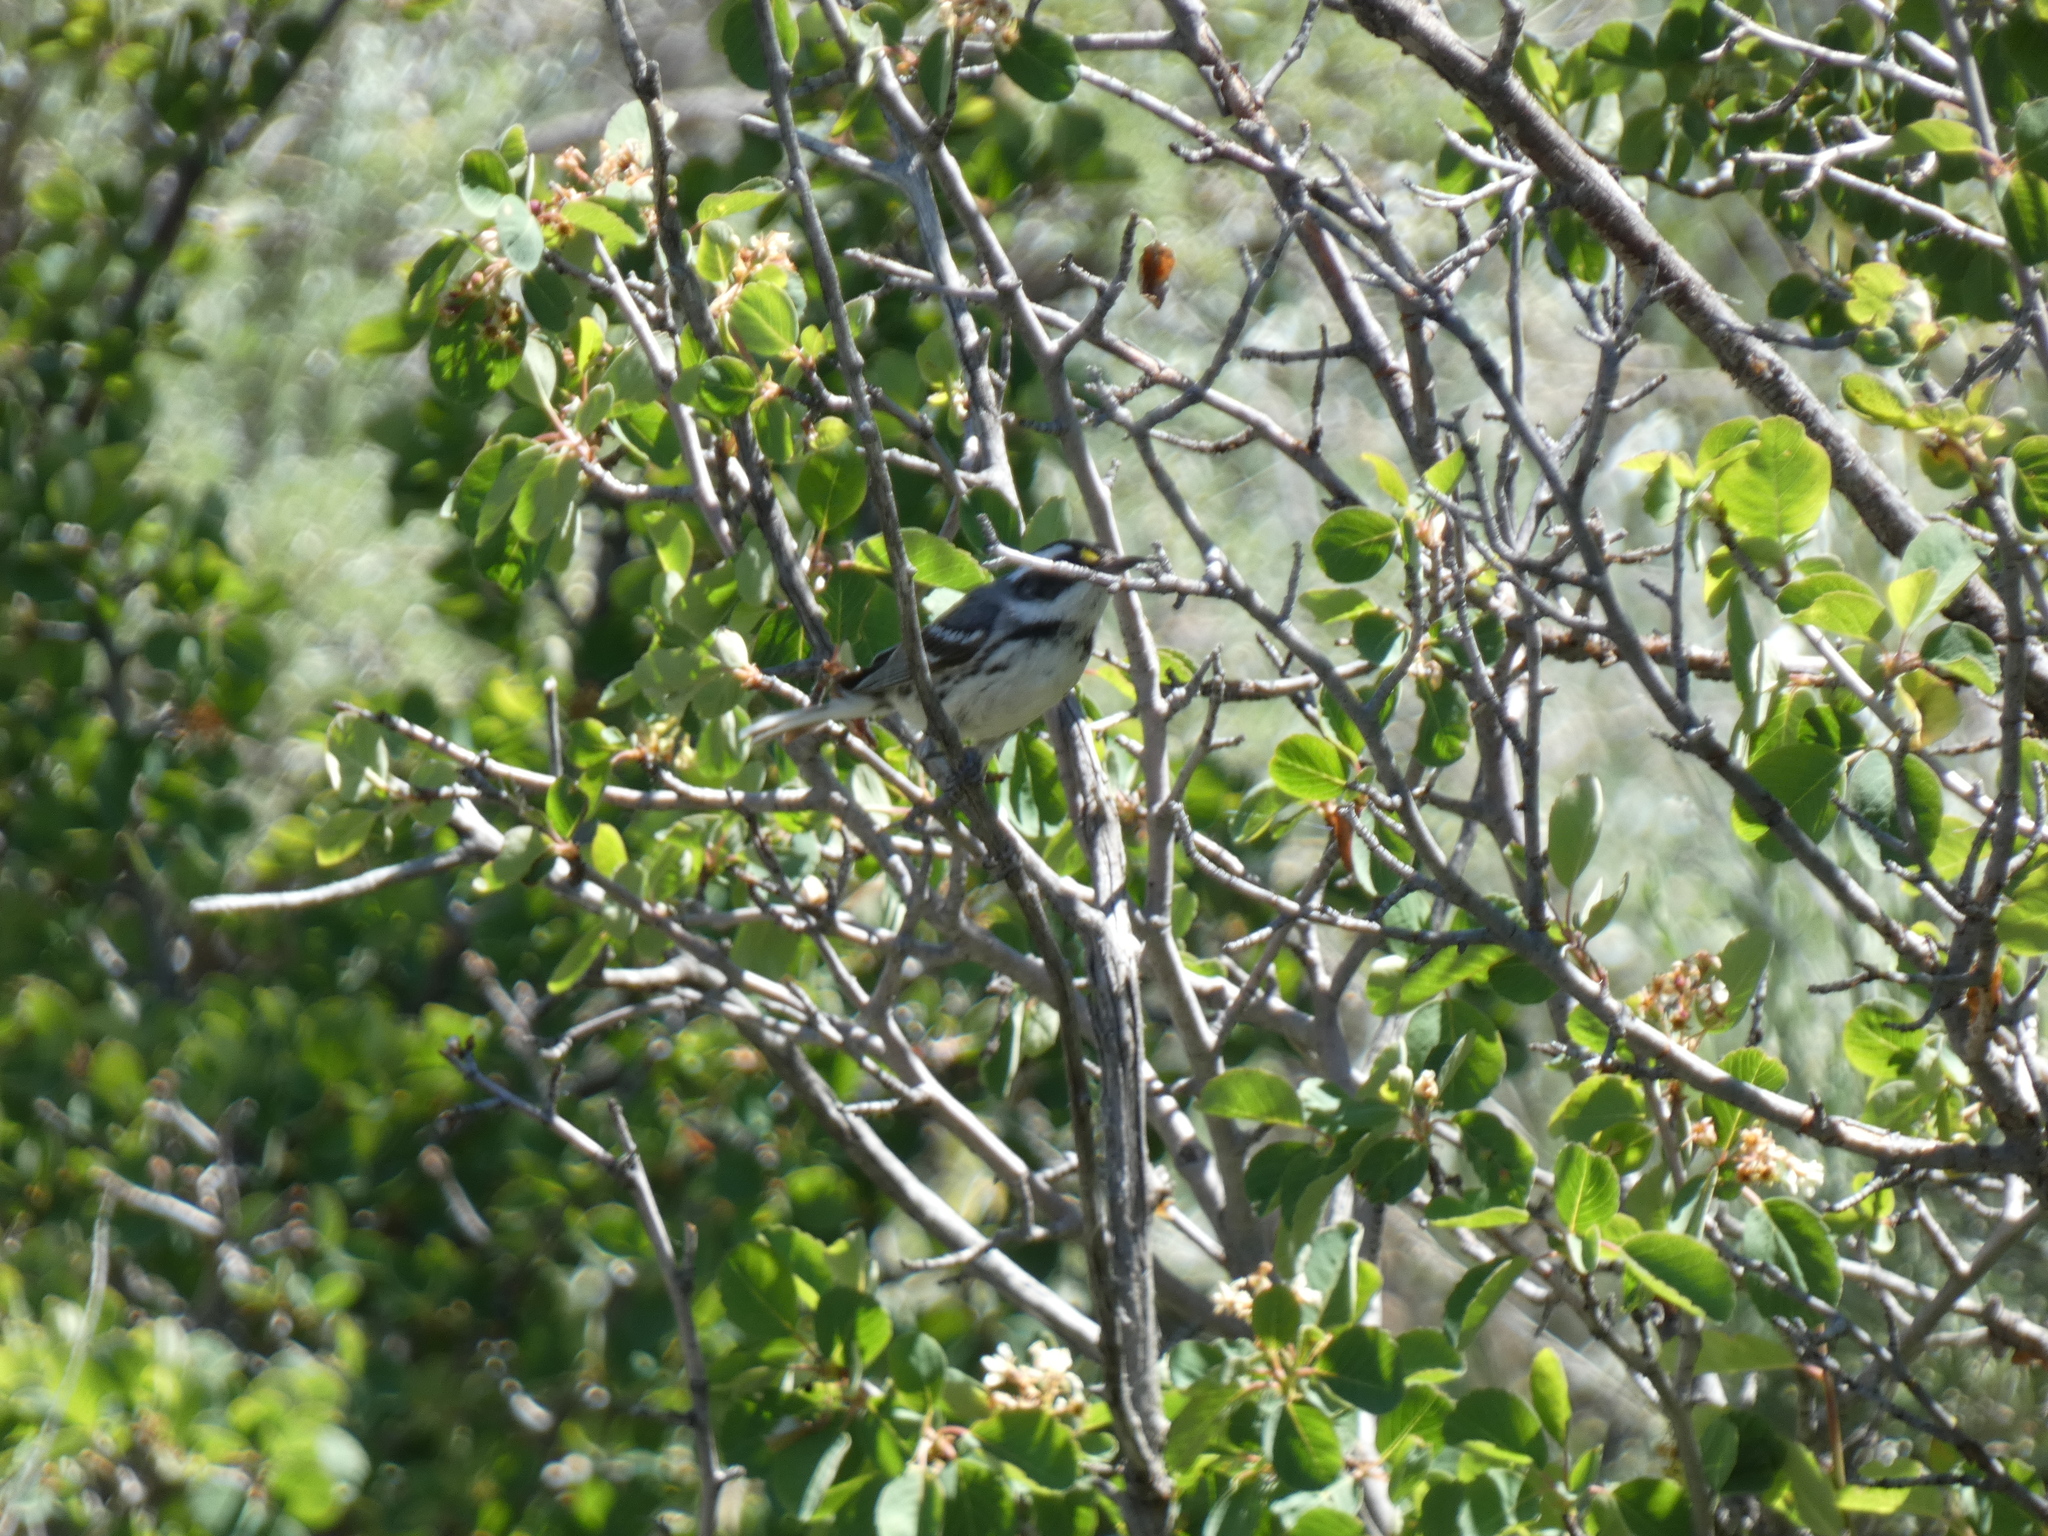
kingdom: Animalia
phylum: Chordata
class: Aves
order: Passeriformes
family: Parulidae
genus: Setophaga
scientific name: Setophaga nigrescens
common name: Black-throated gray warbler
